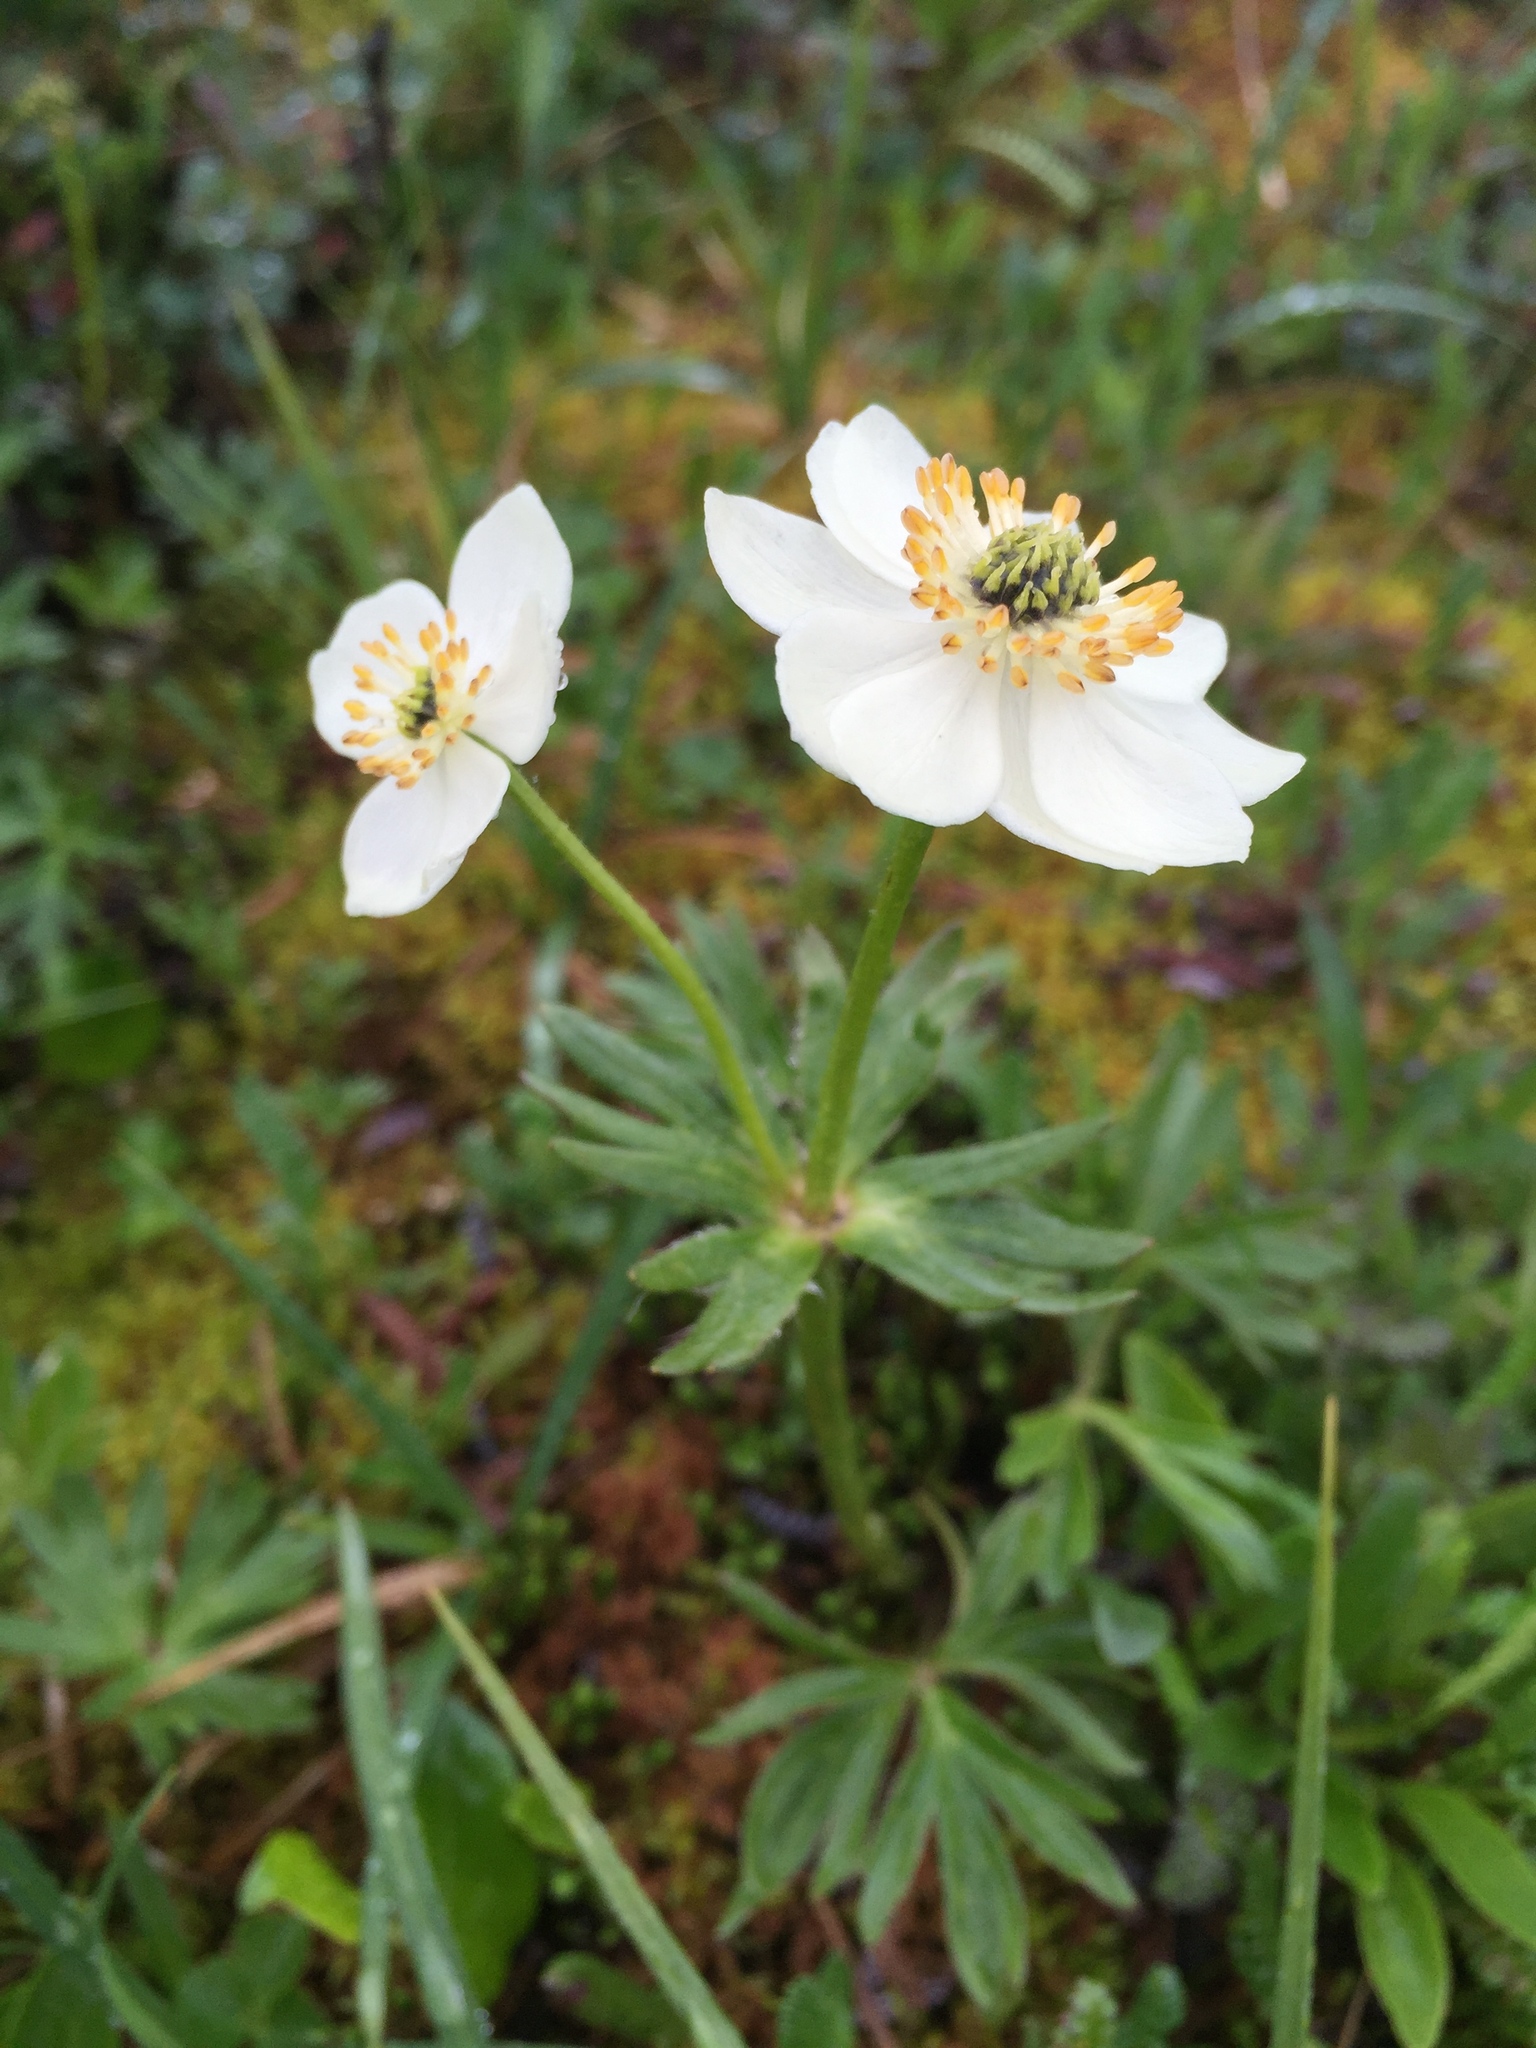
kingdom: Plantae
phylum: Tracheophyta
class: Magnoliopsida
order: Ranunculales
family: Ranunculaceae
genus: Anemonastrum
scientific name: Anemonastrum narcissiflorum
